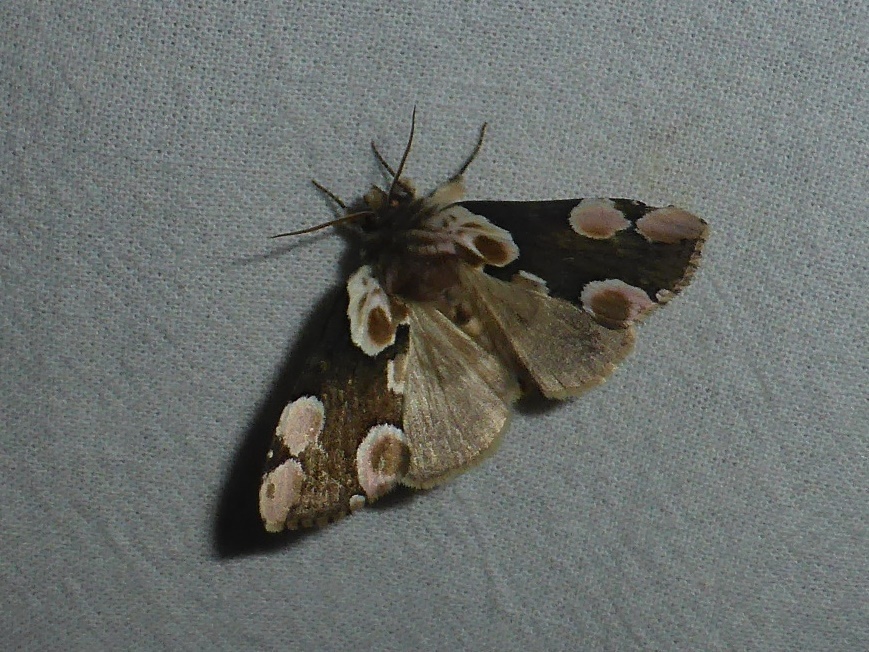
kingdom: Animalia
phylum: Arthropoda
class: Insecta
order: Lepidoptera
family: Drepanidae
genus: Thyatira
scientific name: Thyatira batis
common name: Peach blossom
